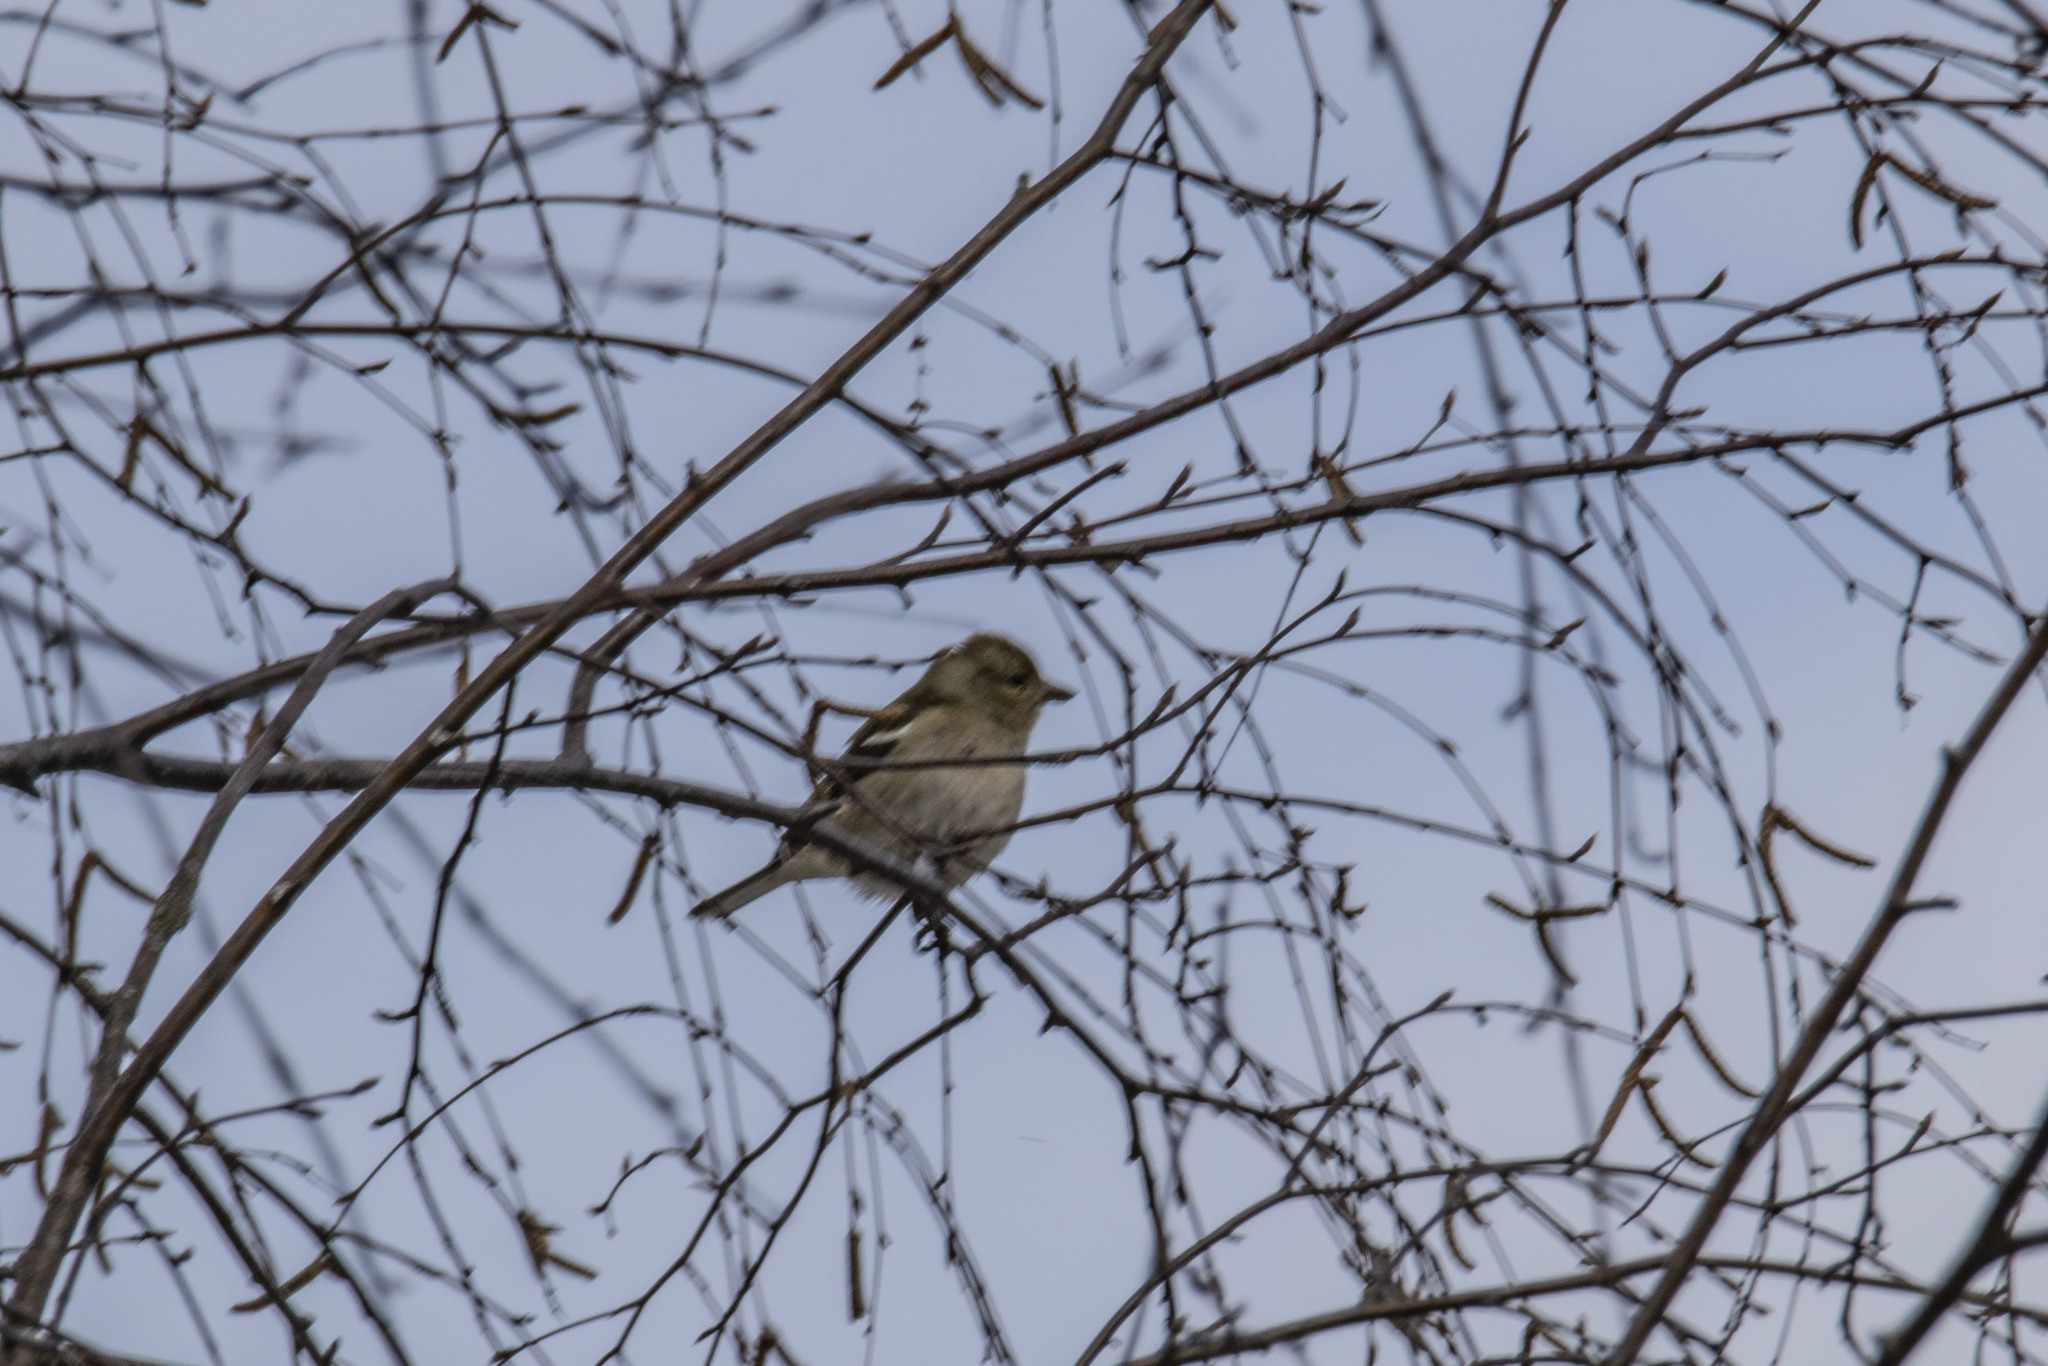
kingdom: Animalia
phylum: Chordata
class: Aves
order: Passeriformes
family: Fringillidae
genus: Fringilla
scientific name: Fringilla coelebs
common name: Common chaffinch
